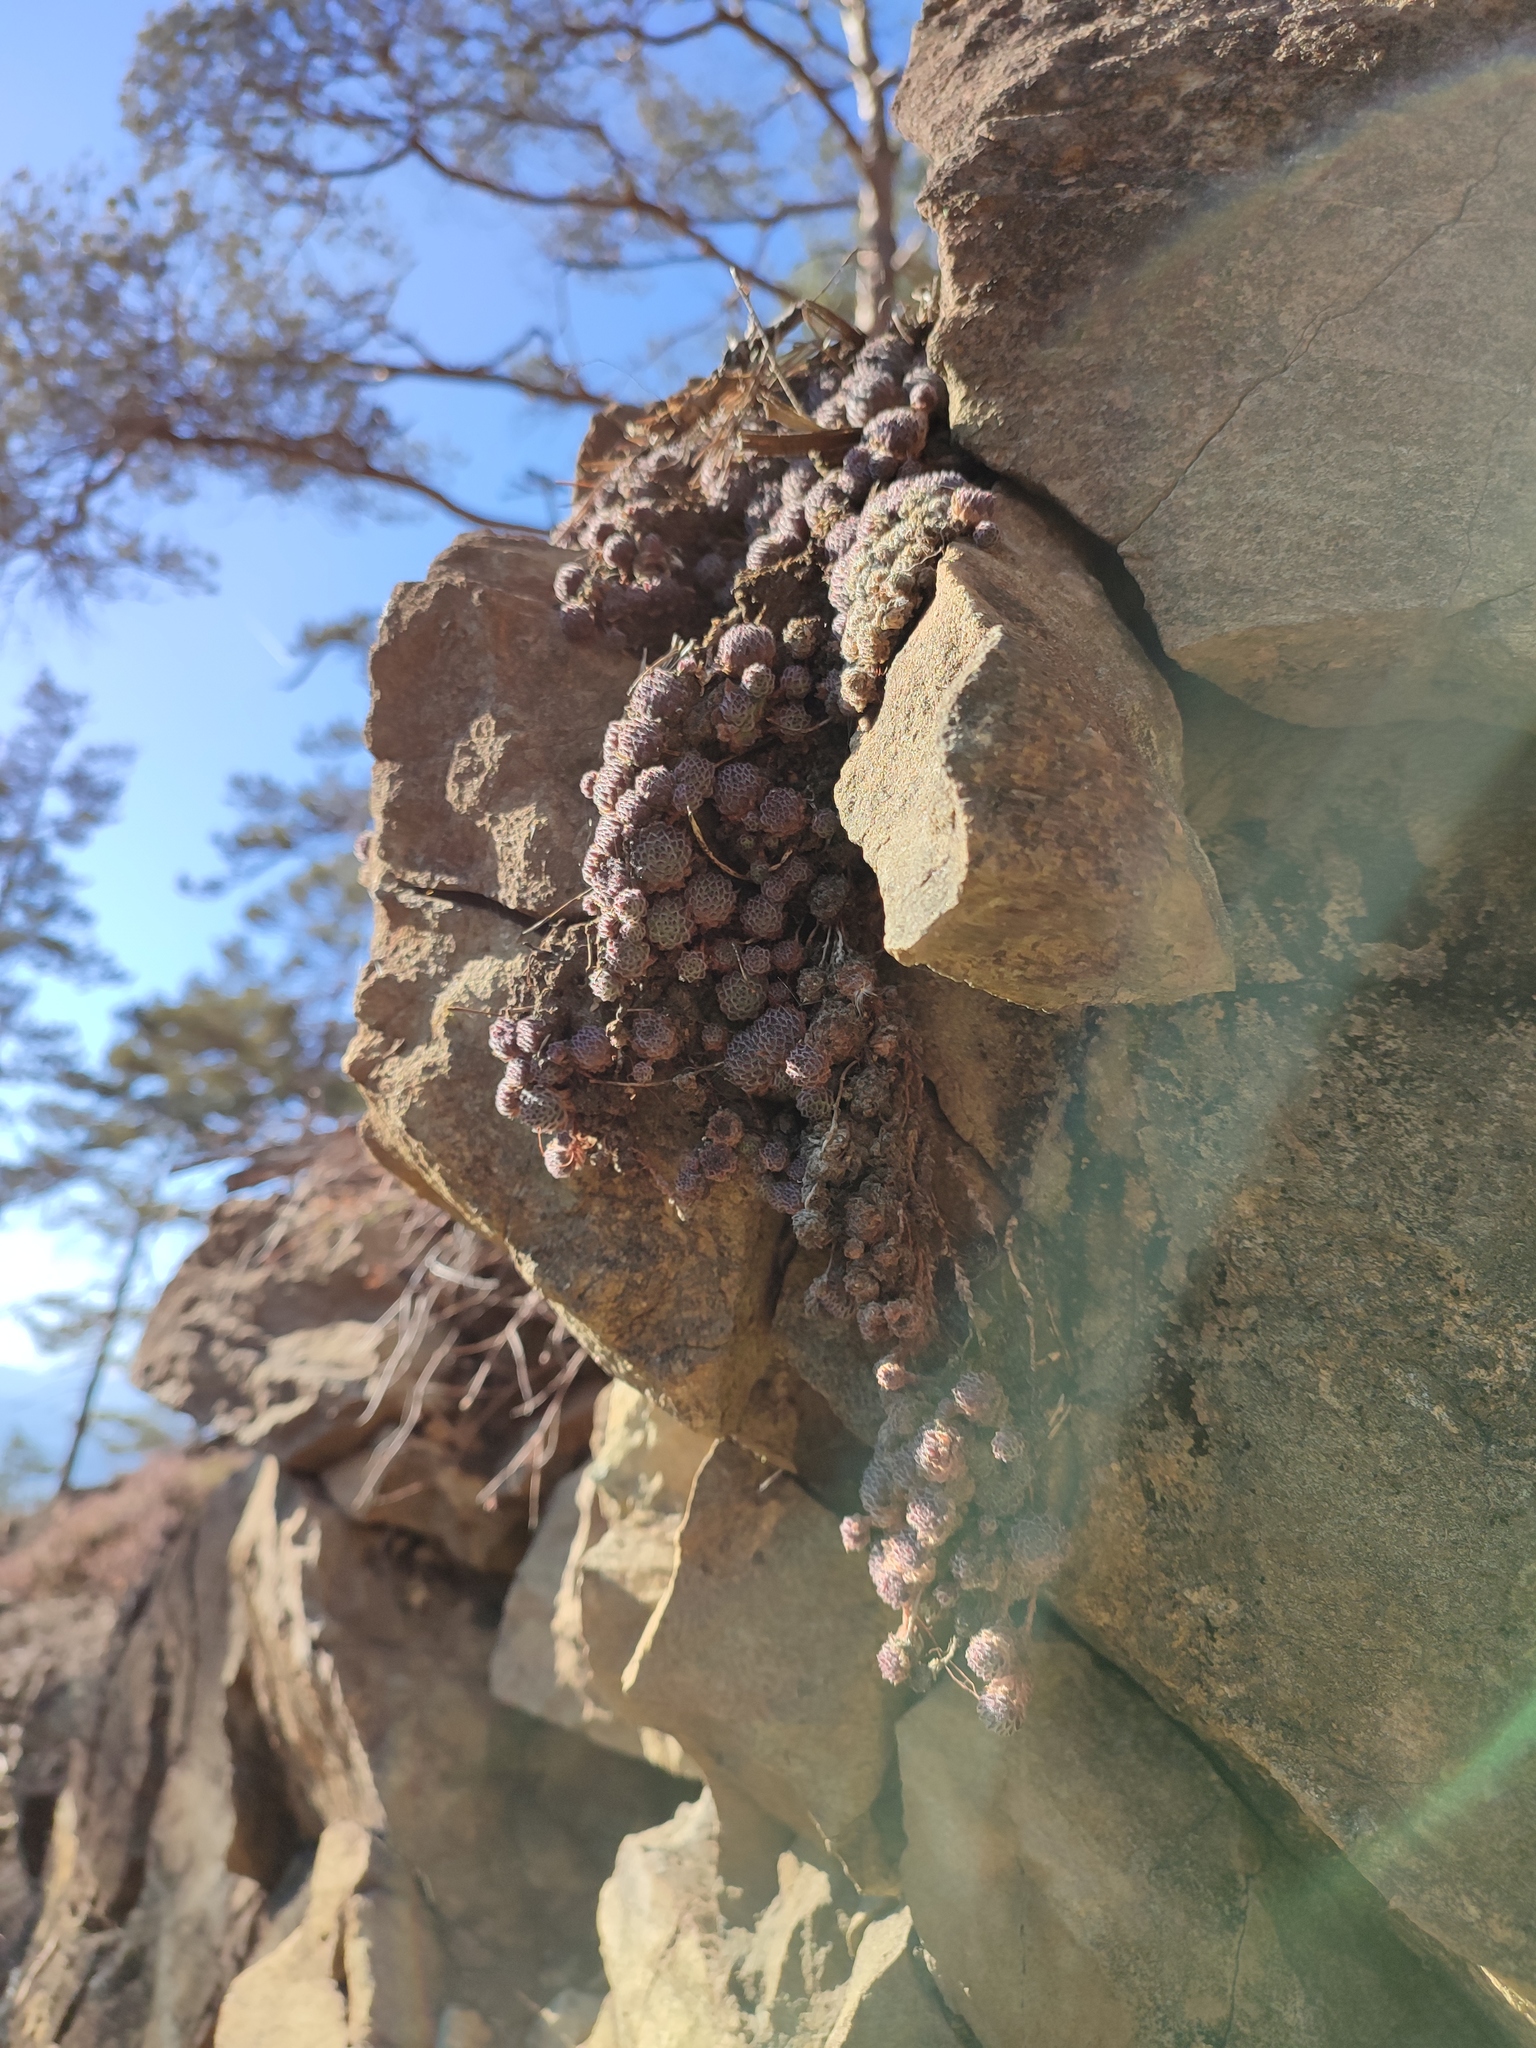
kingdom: Plantae
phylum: Tracheophyta
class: Magnoliopsida
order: Saxifragales
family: Crassulaceae
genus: Sempervivum
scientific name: Sempervivum pittonii
